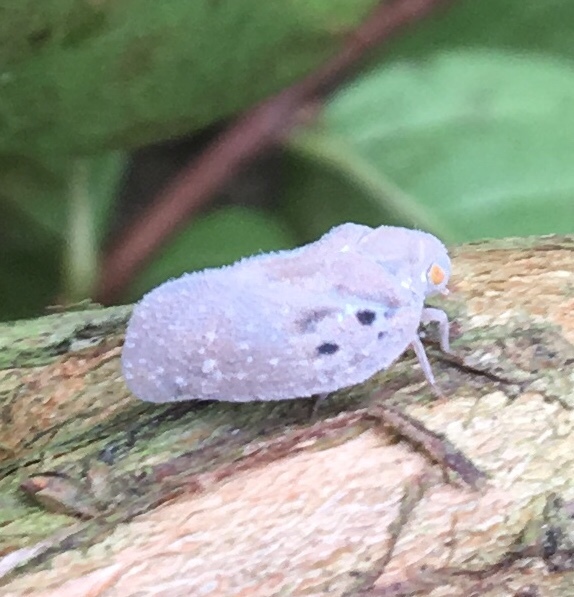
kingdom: Animalia
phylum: Arthropoda
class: Insecta
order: Hemiptera
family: Flatidae
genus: Metcalfa
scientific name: Metcalfa pruinosa
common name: Citrus flatid planthopper
